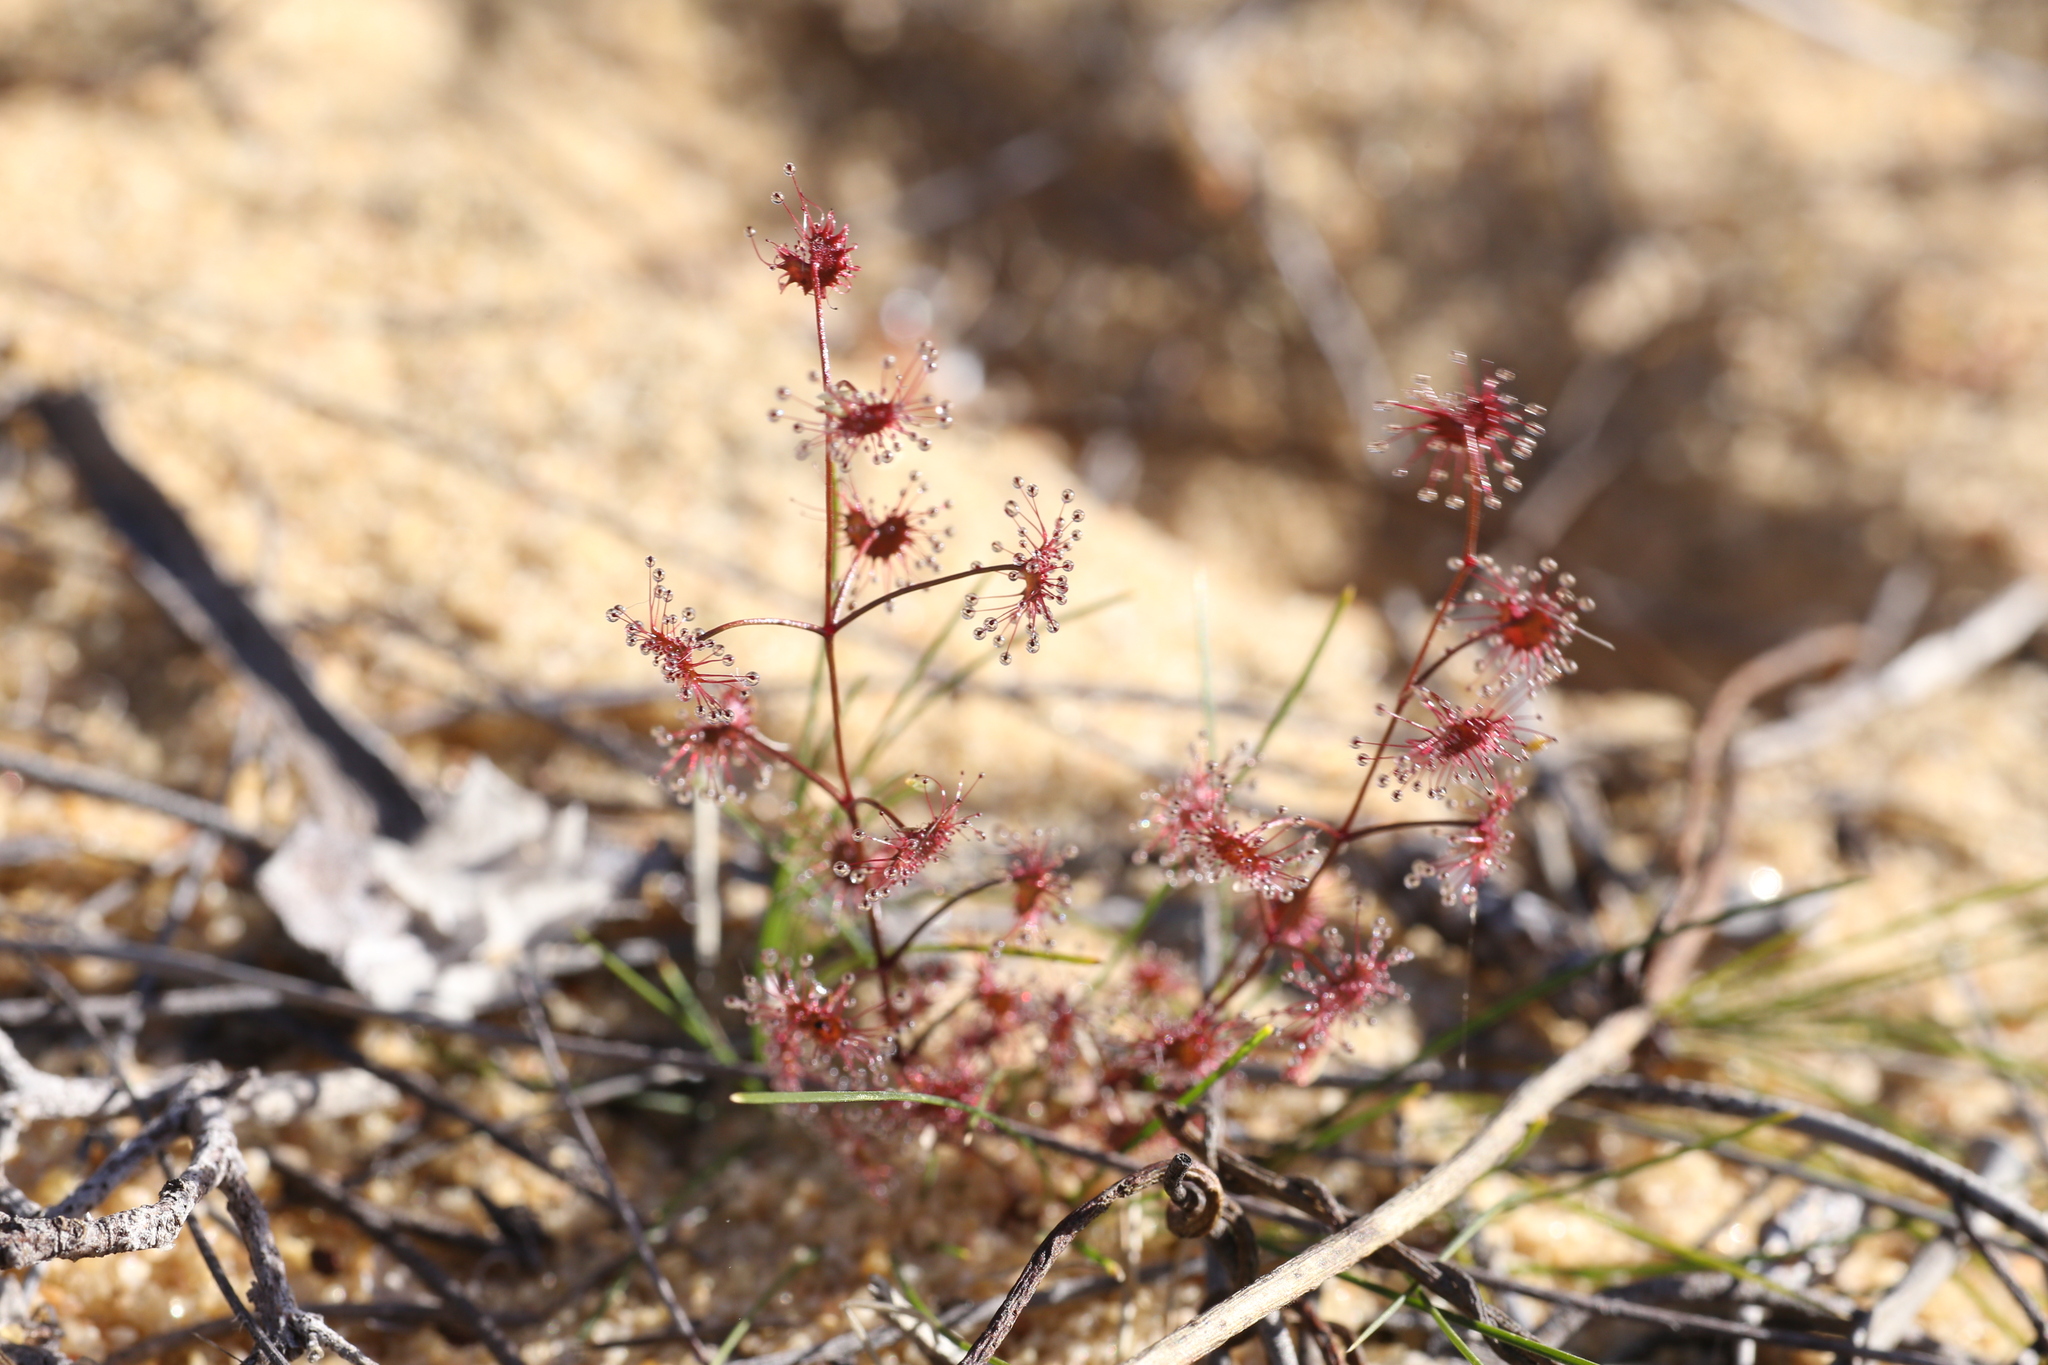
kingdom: Plantae
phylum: Tracheophyta
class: Magnoliopsida
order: Caryophyllales
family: Droseraceae
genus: Drosera
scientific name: Drosera stolonifera
